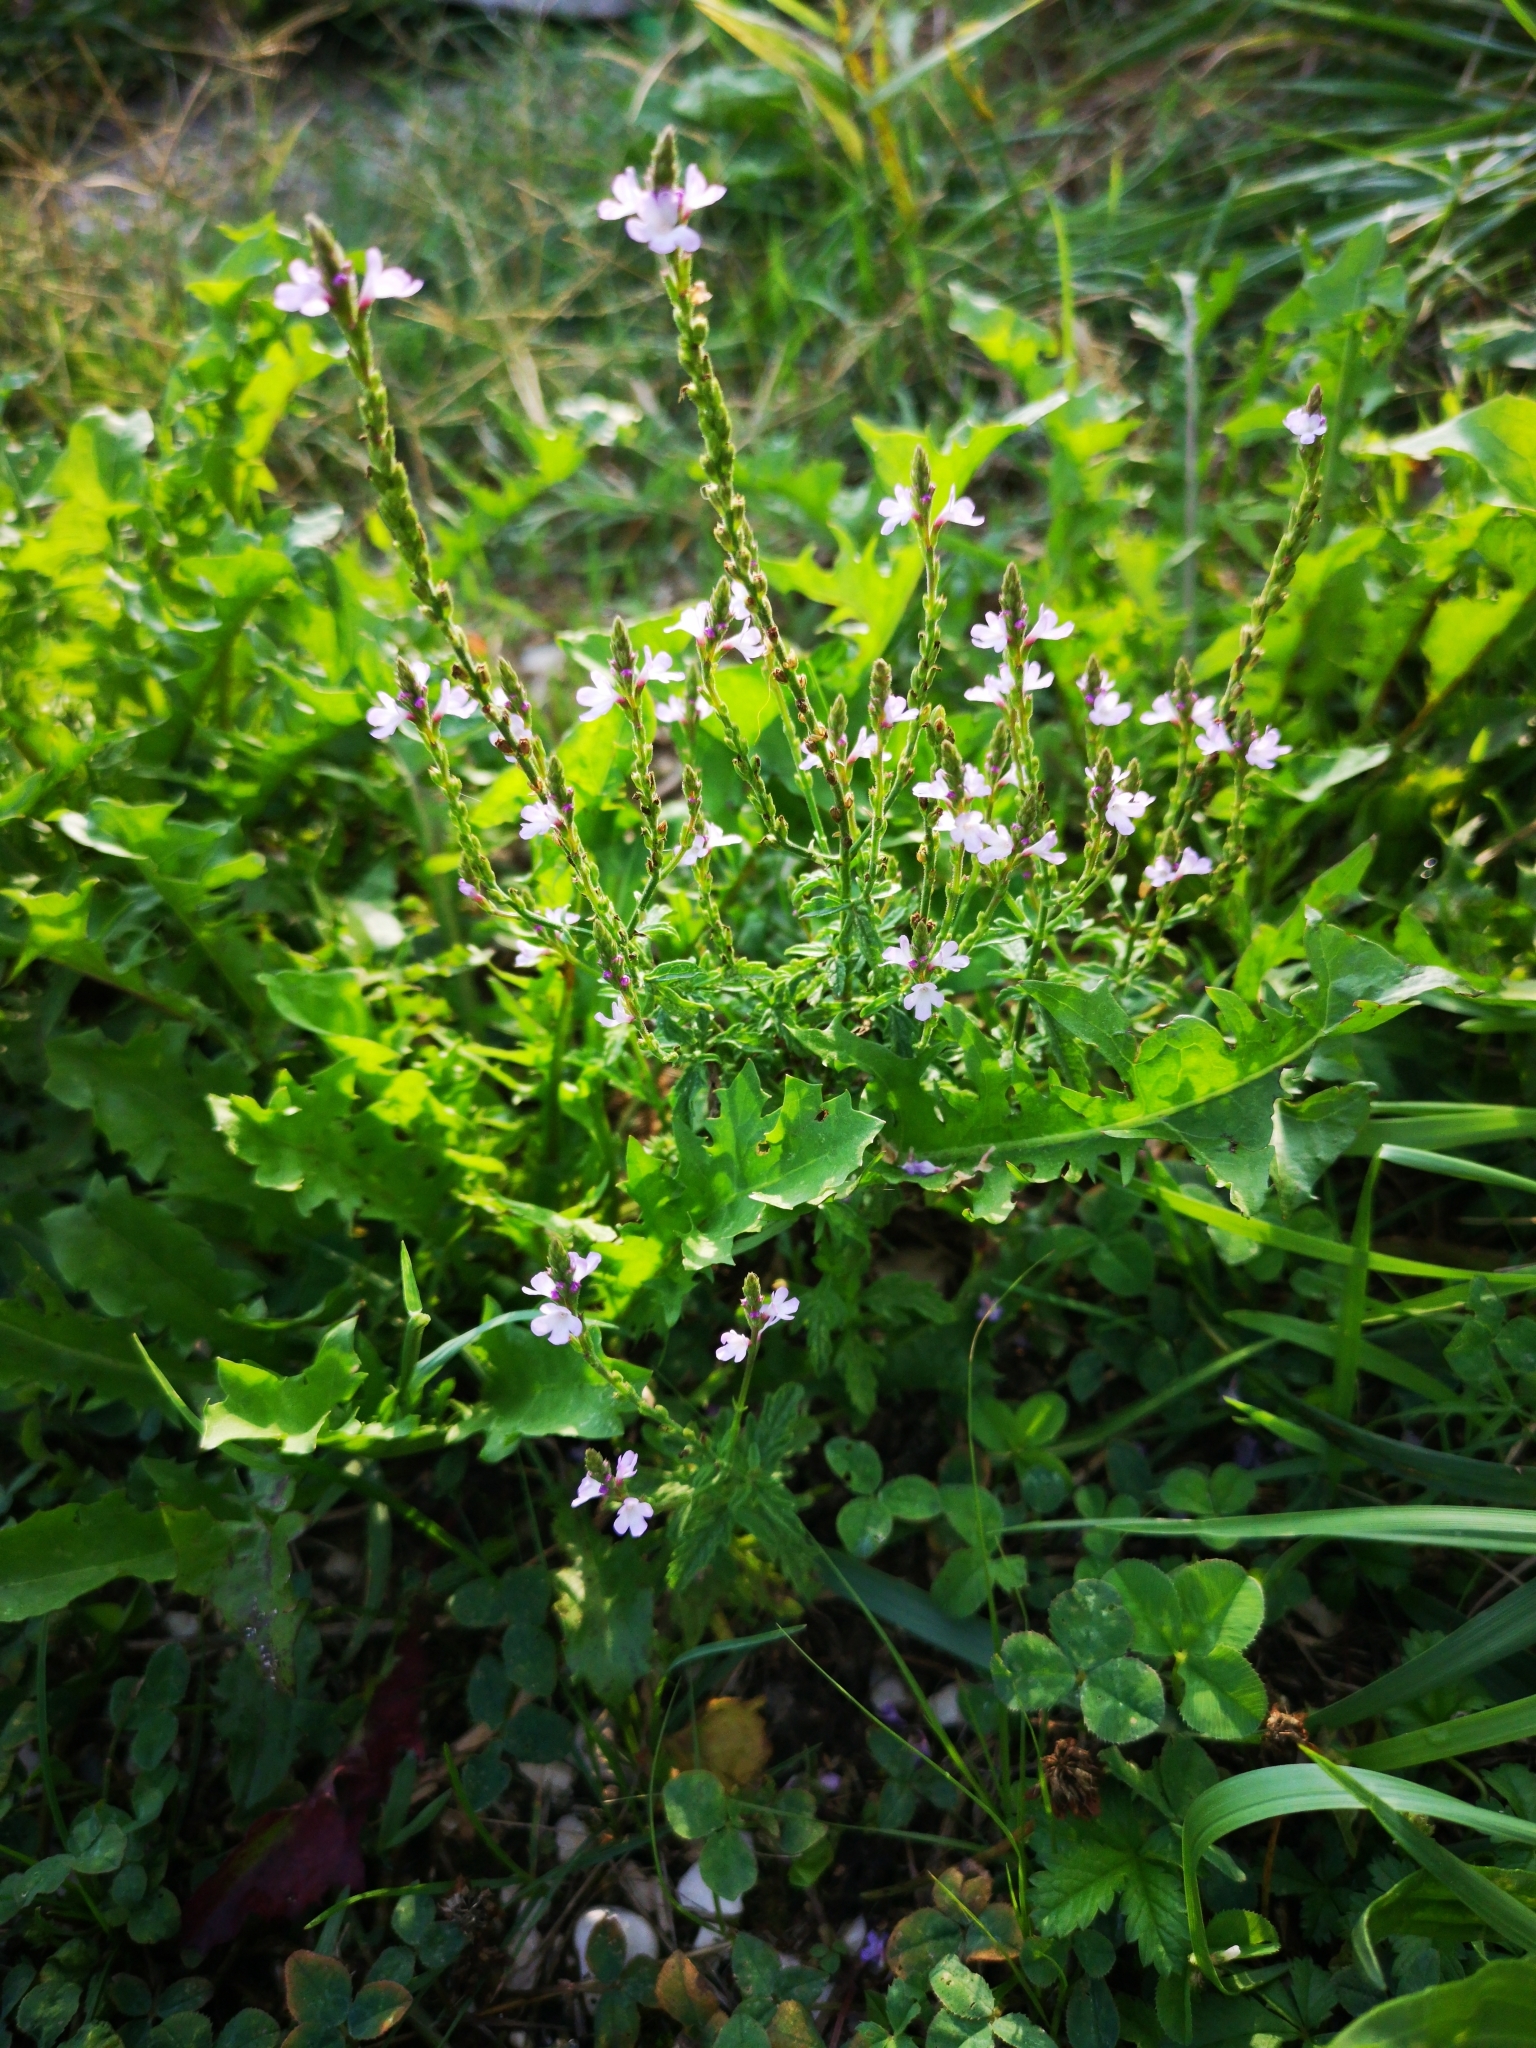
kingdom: Plantae
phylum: Tracheophyta
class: Magnoliopsida
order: Lamiales
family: Verbenaceae
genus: Verbena
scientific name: Verbena officinalis
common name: Vervain
